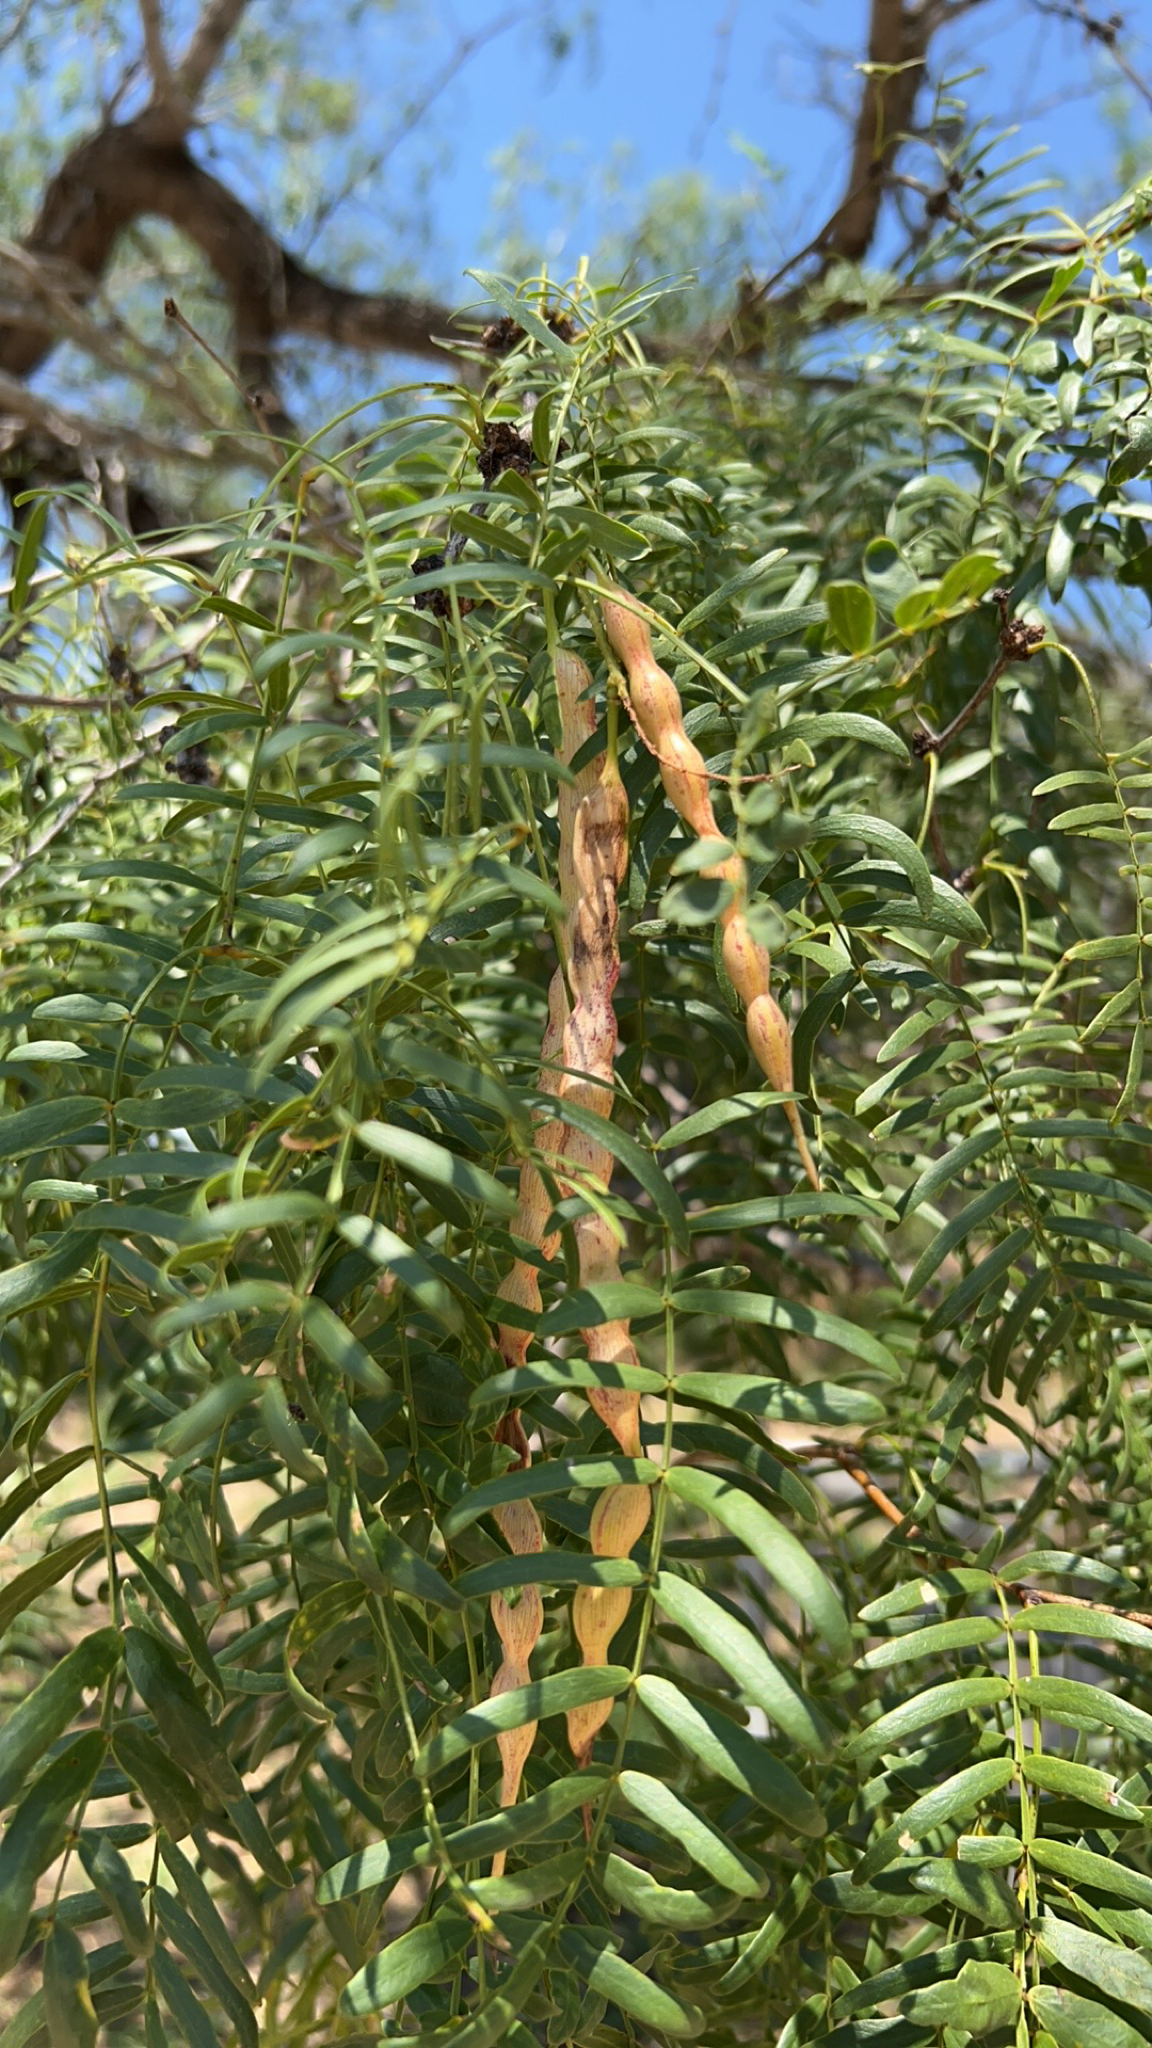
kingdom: Plantae
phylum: Tracheophyta
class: Magnoliopsida
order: Fabales
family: Fabaceae
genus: Prosopis
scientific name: Prosopis glandulosa
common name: Honey mesquite
